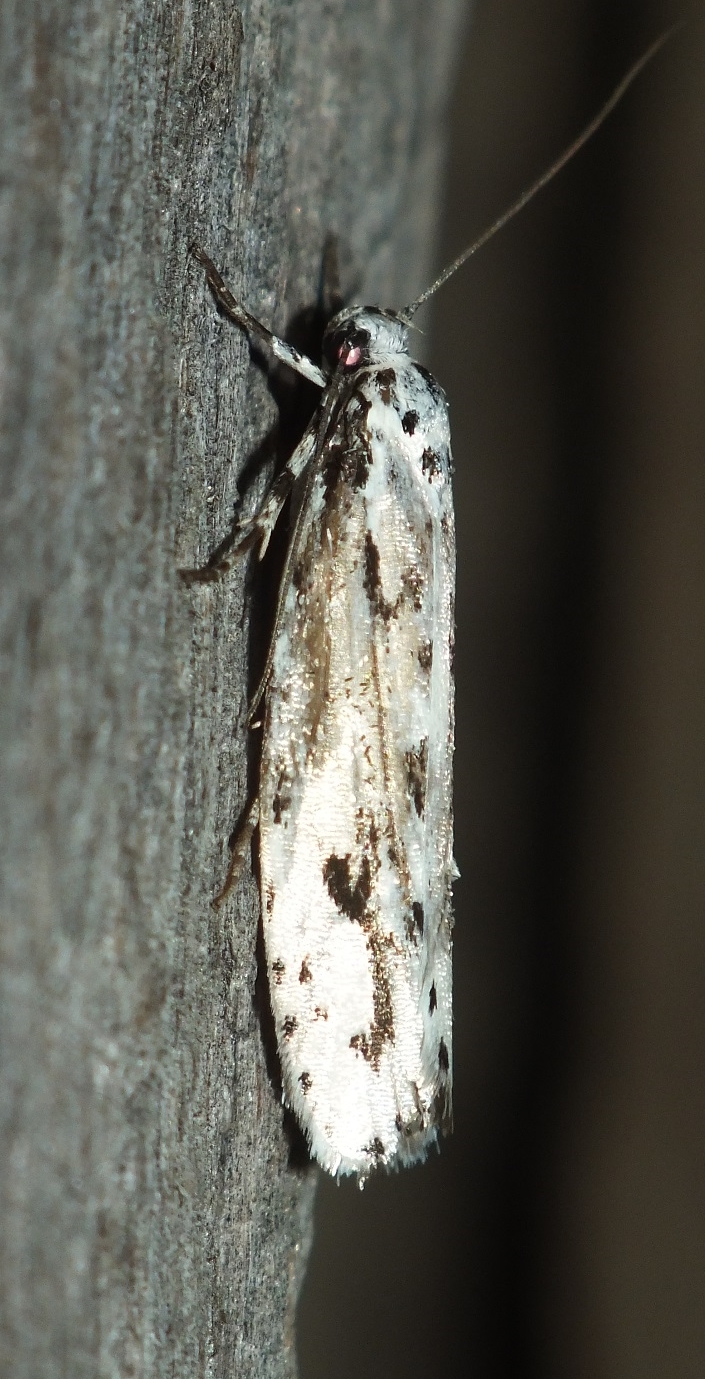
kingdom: Animalia
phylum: Arthropoda
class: Insecta
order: Lepidoptera
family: Ethmiidae
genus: Ethmia
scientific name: Ethmia candidella
